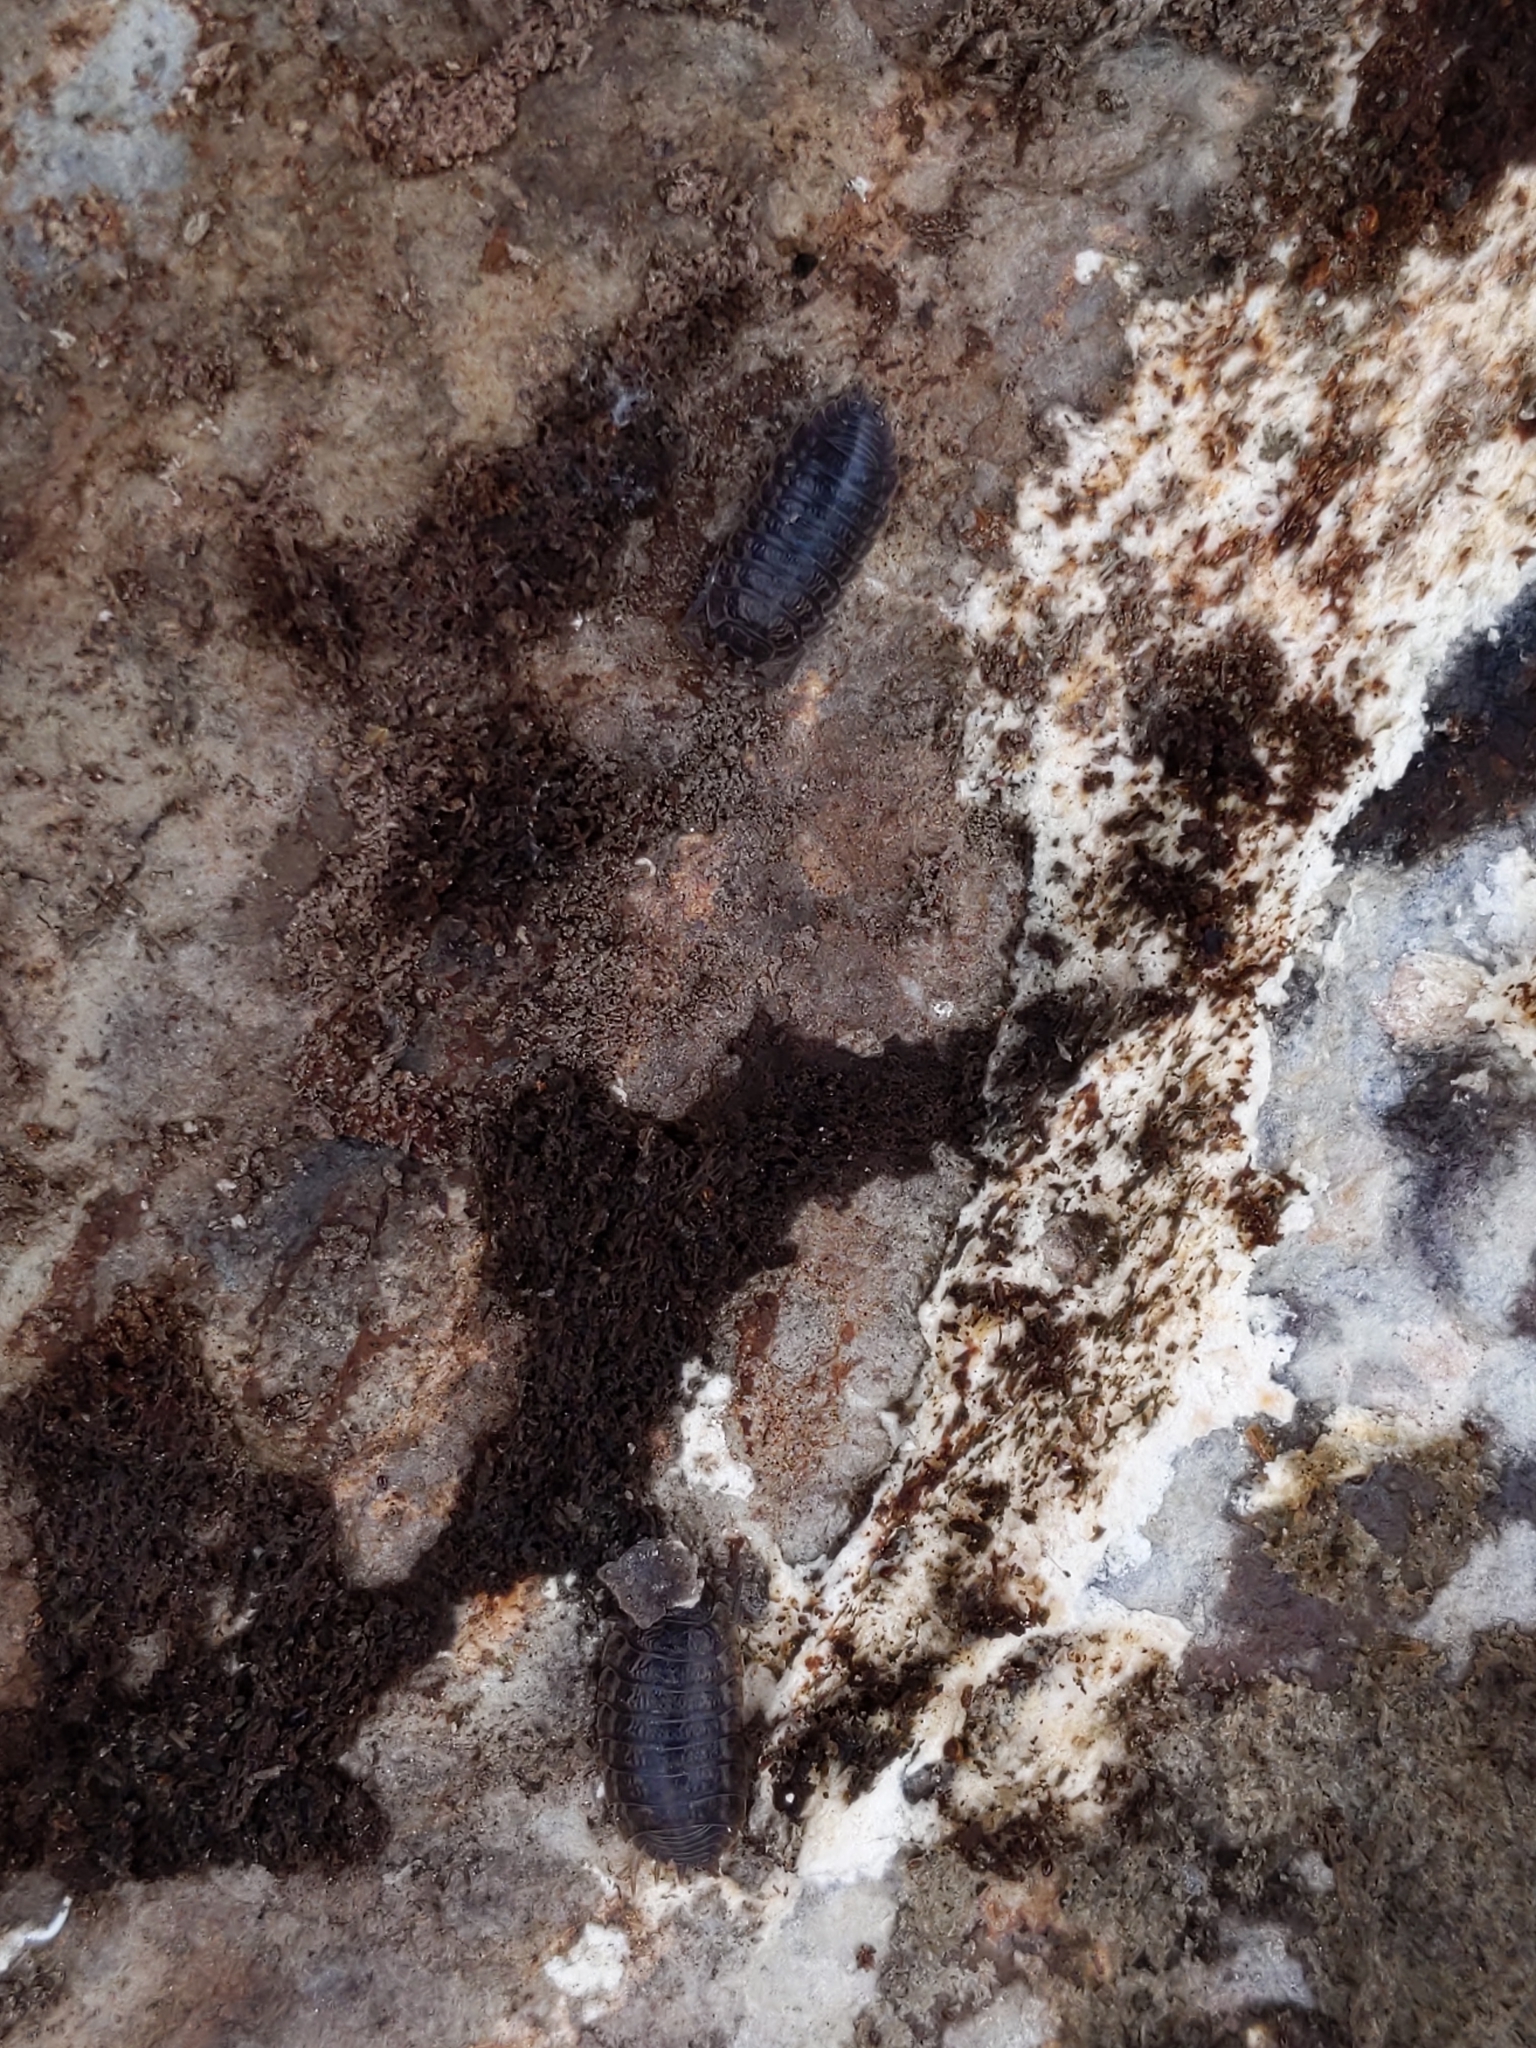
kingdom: Animalia
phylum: Arthropoda
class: Malacostraca
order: Isopoda
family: Trachelipodidae
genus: Trachelipus
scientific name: Trachelipus rathkii
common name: Isopod
